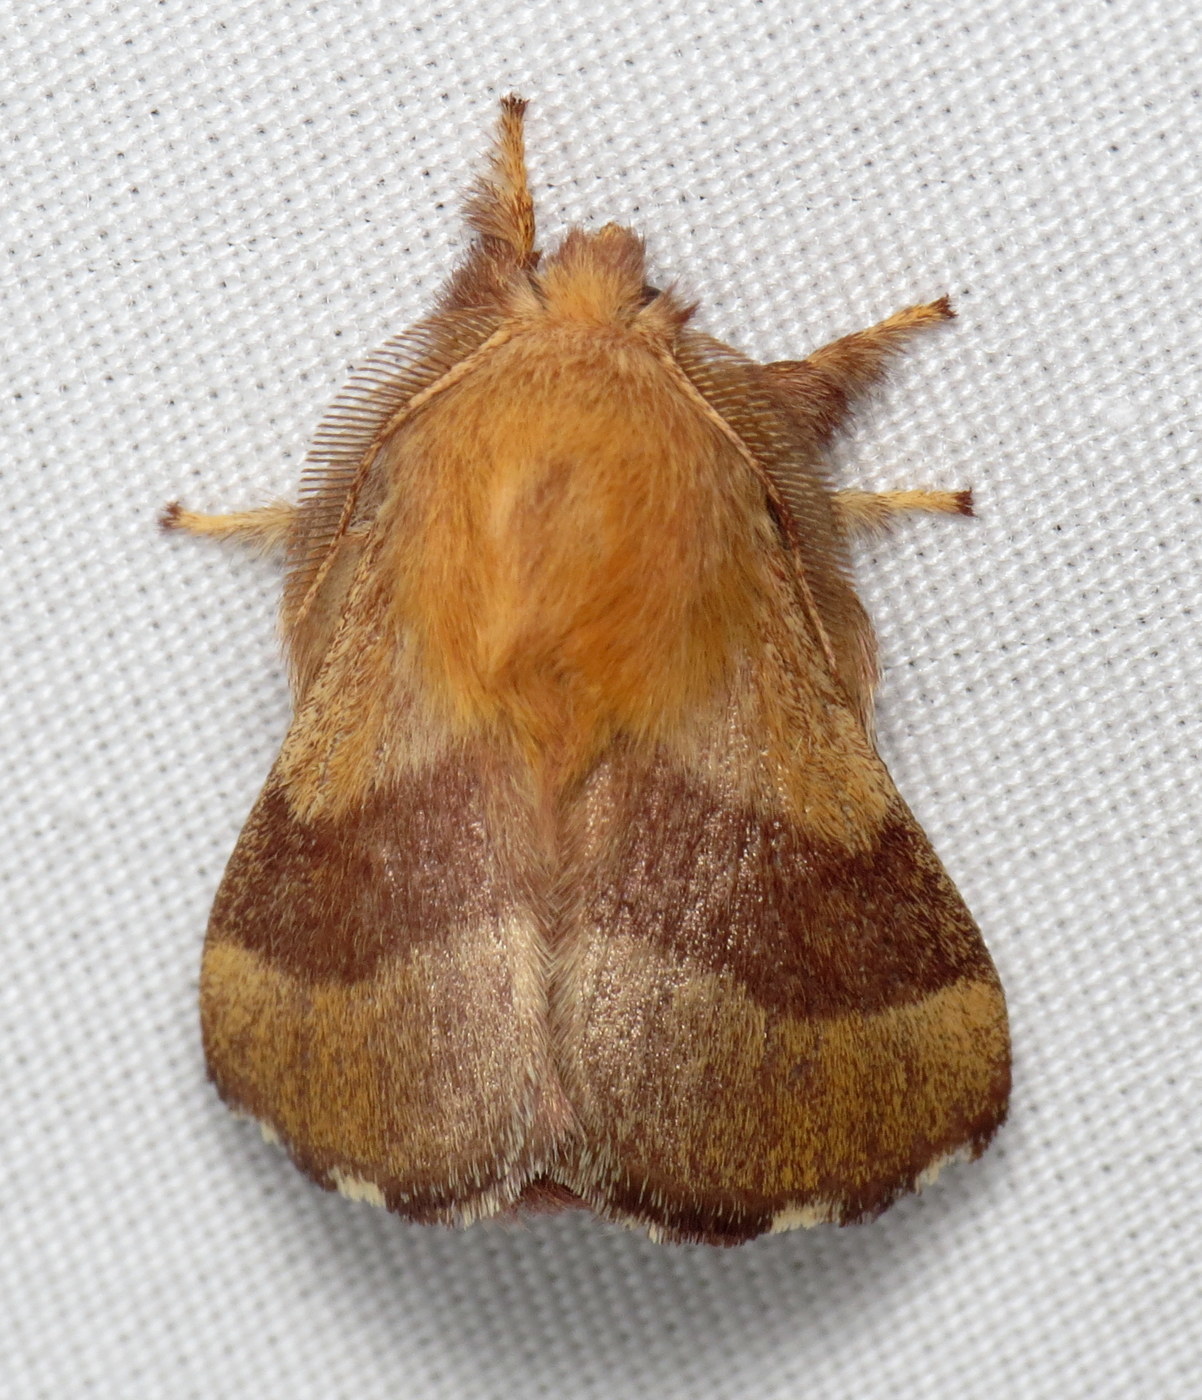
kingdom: Animalia
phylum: Arthropoda
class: Insecta
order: Lepidoptera
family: Lasiocampidae
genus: Malacosoma
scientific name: Malacosoma disstria
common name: Forest tent caterpillar
